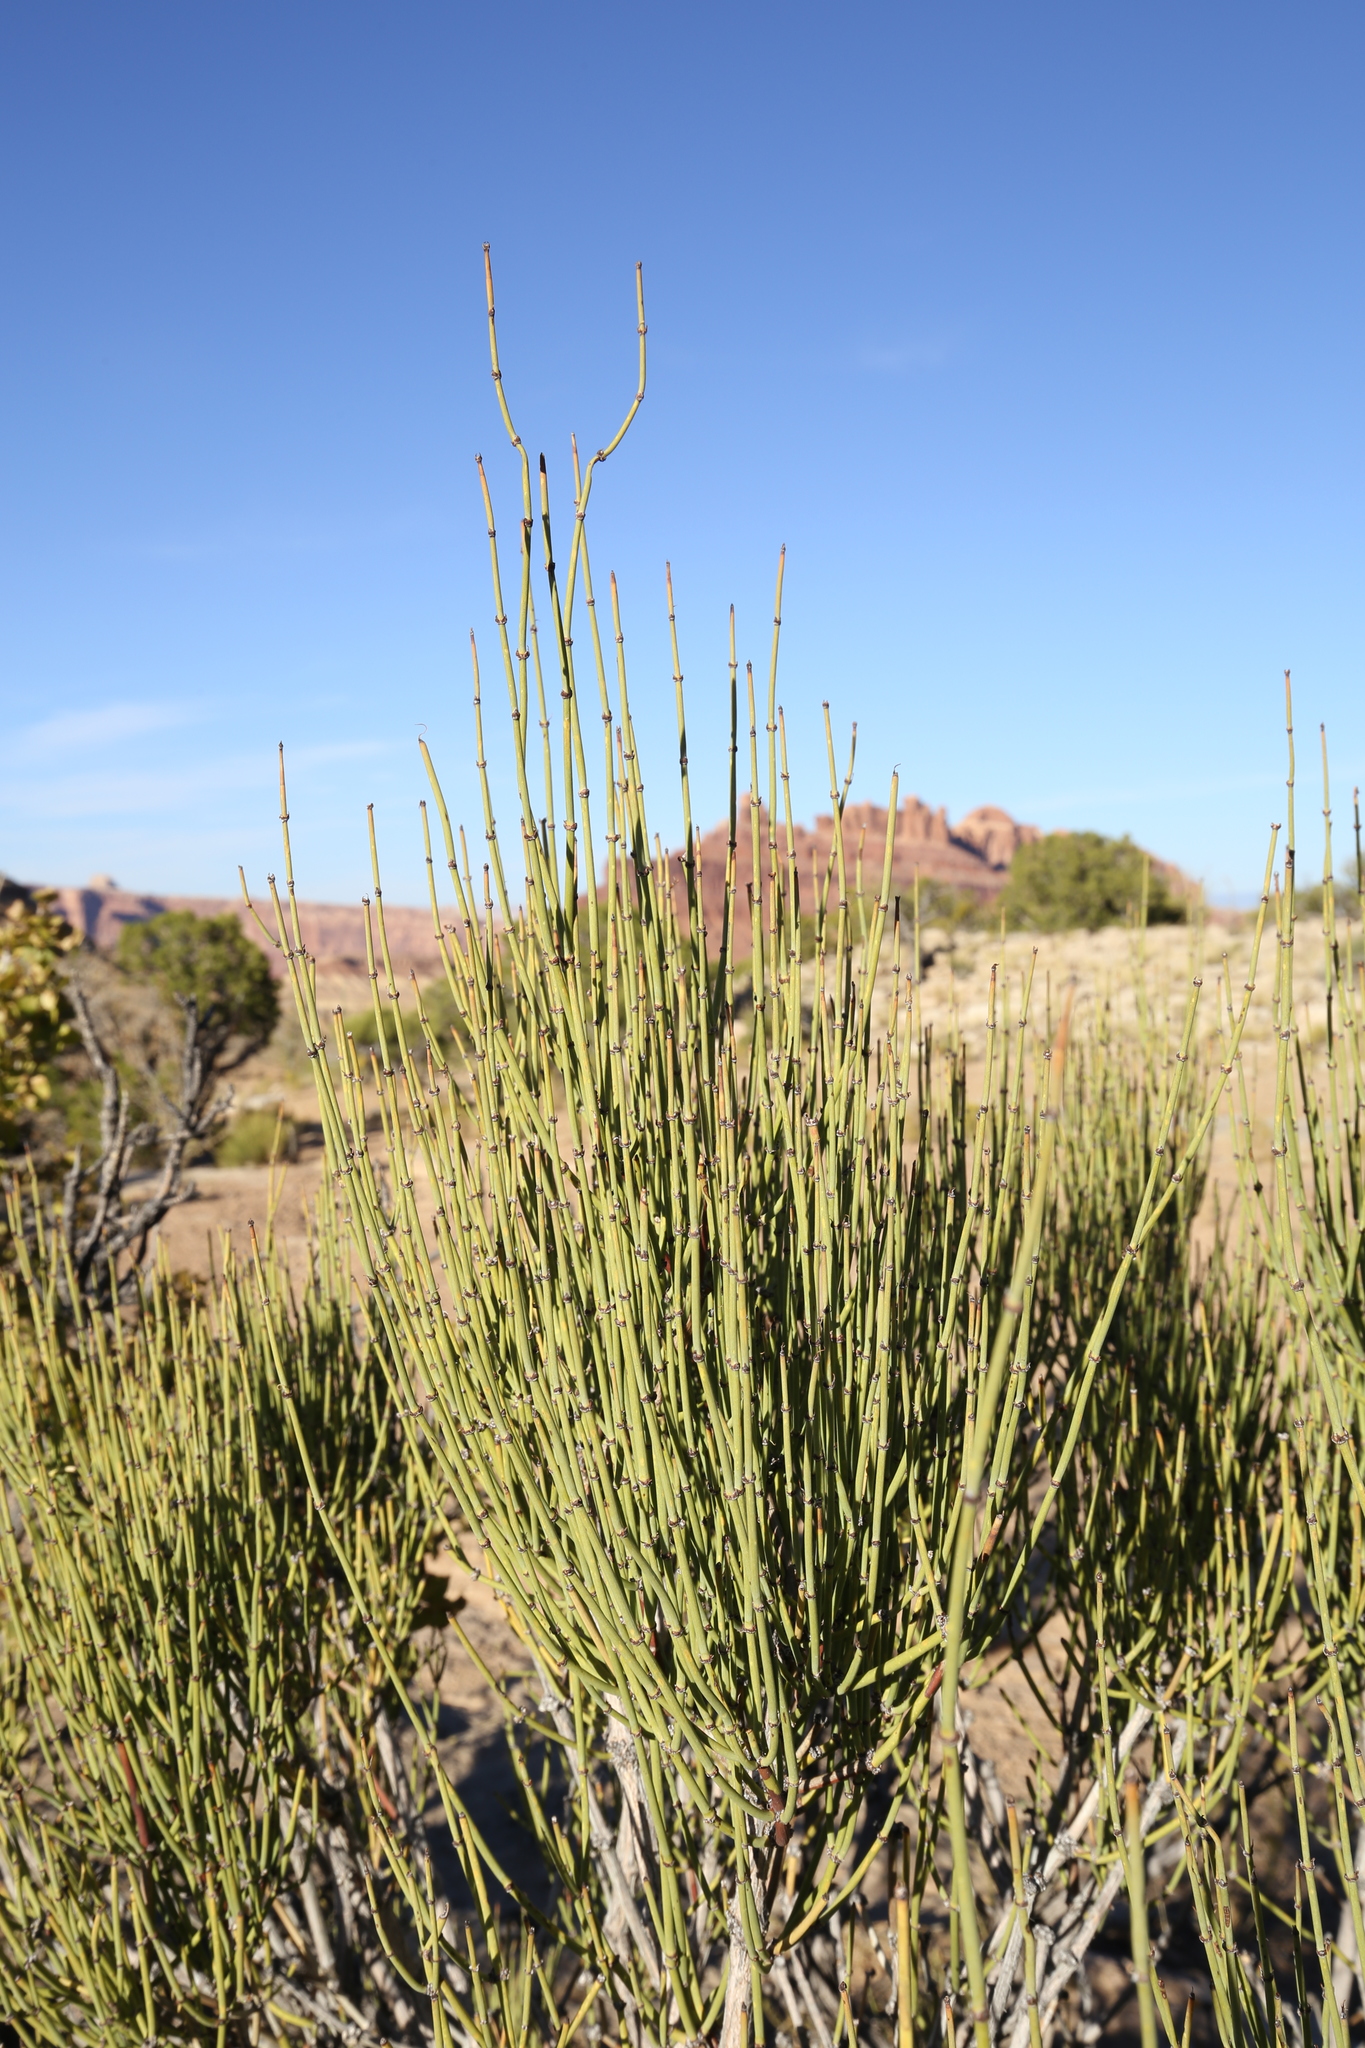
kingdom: Plantae
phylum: Tracheophyta
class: Gnetopsida
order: Ephedrales
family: Ephedraceae
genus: Ephedra
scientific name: Ephedra viridis
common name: Green ephedra
